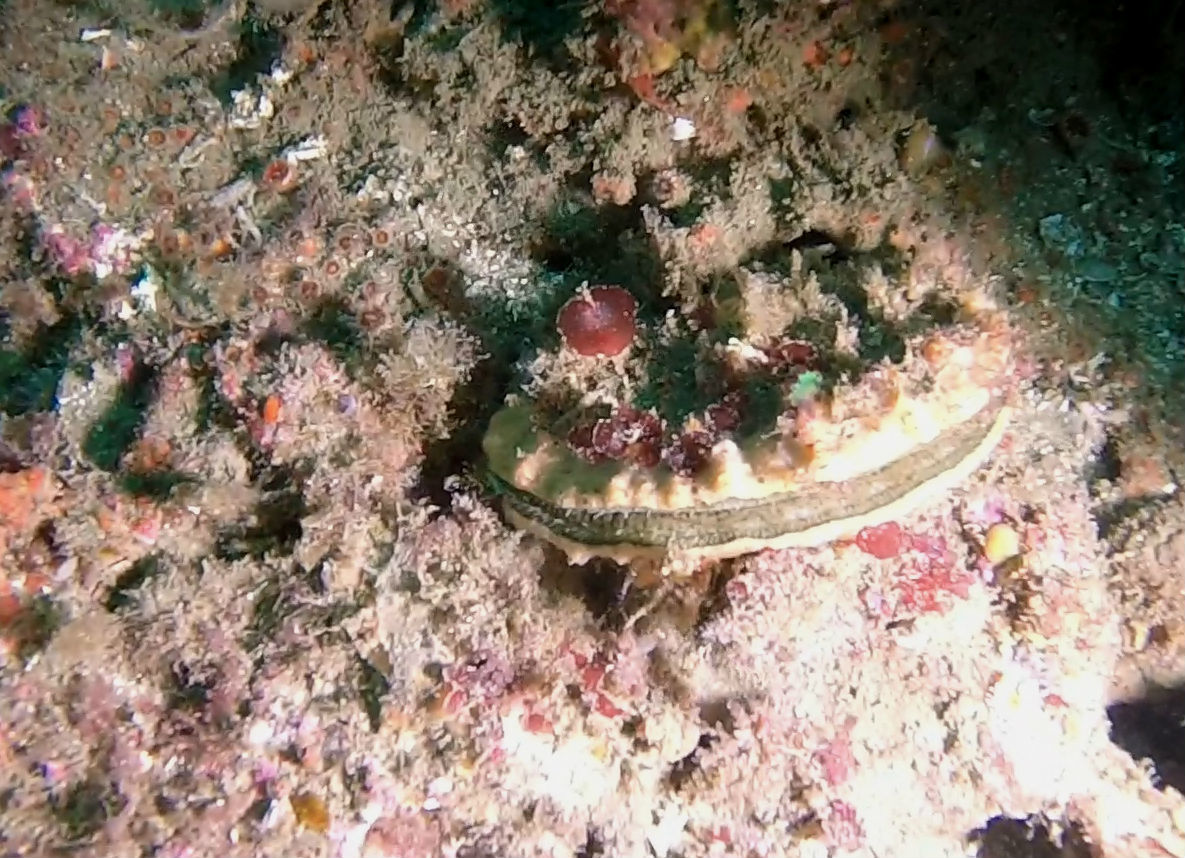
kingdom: Animalia
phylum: Mollusca
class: Bivalvia
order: Pectinida
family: Pectinidae
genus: Crassadoma
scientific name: Crassadoma gigantea
